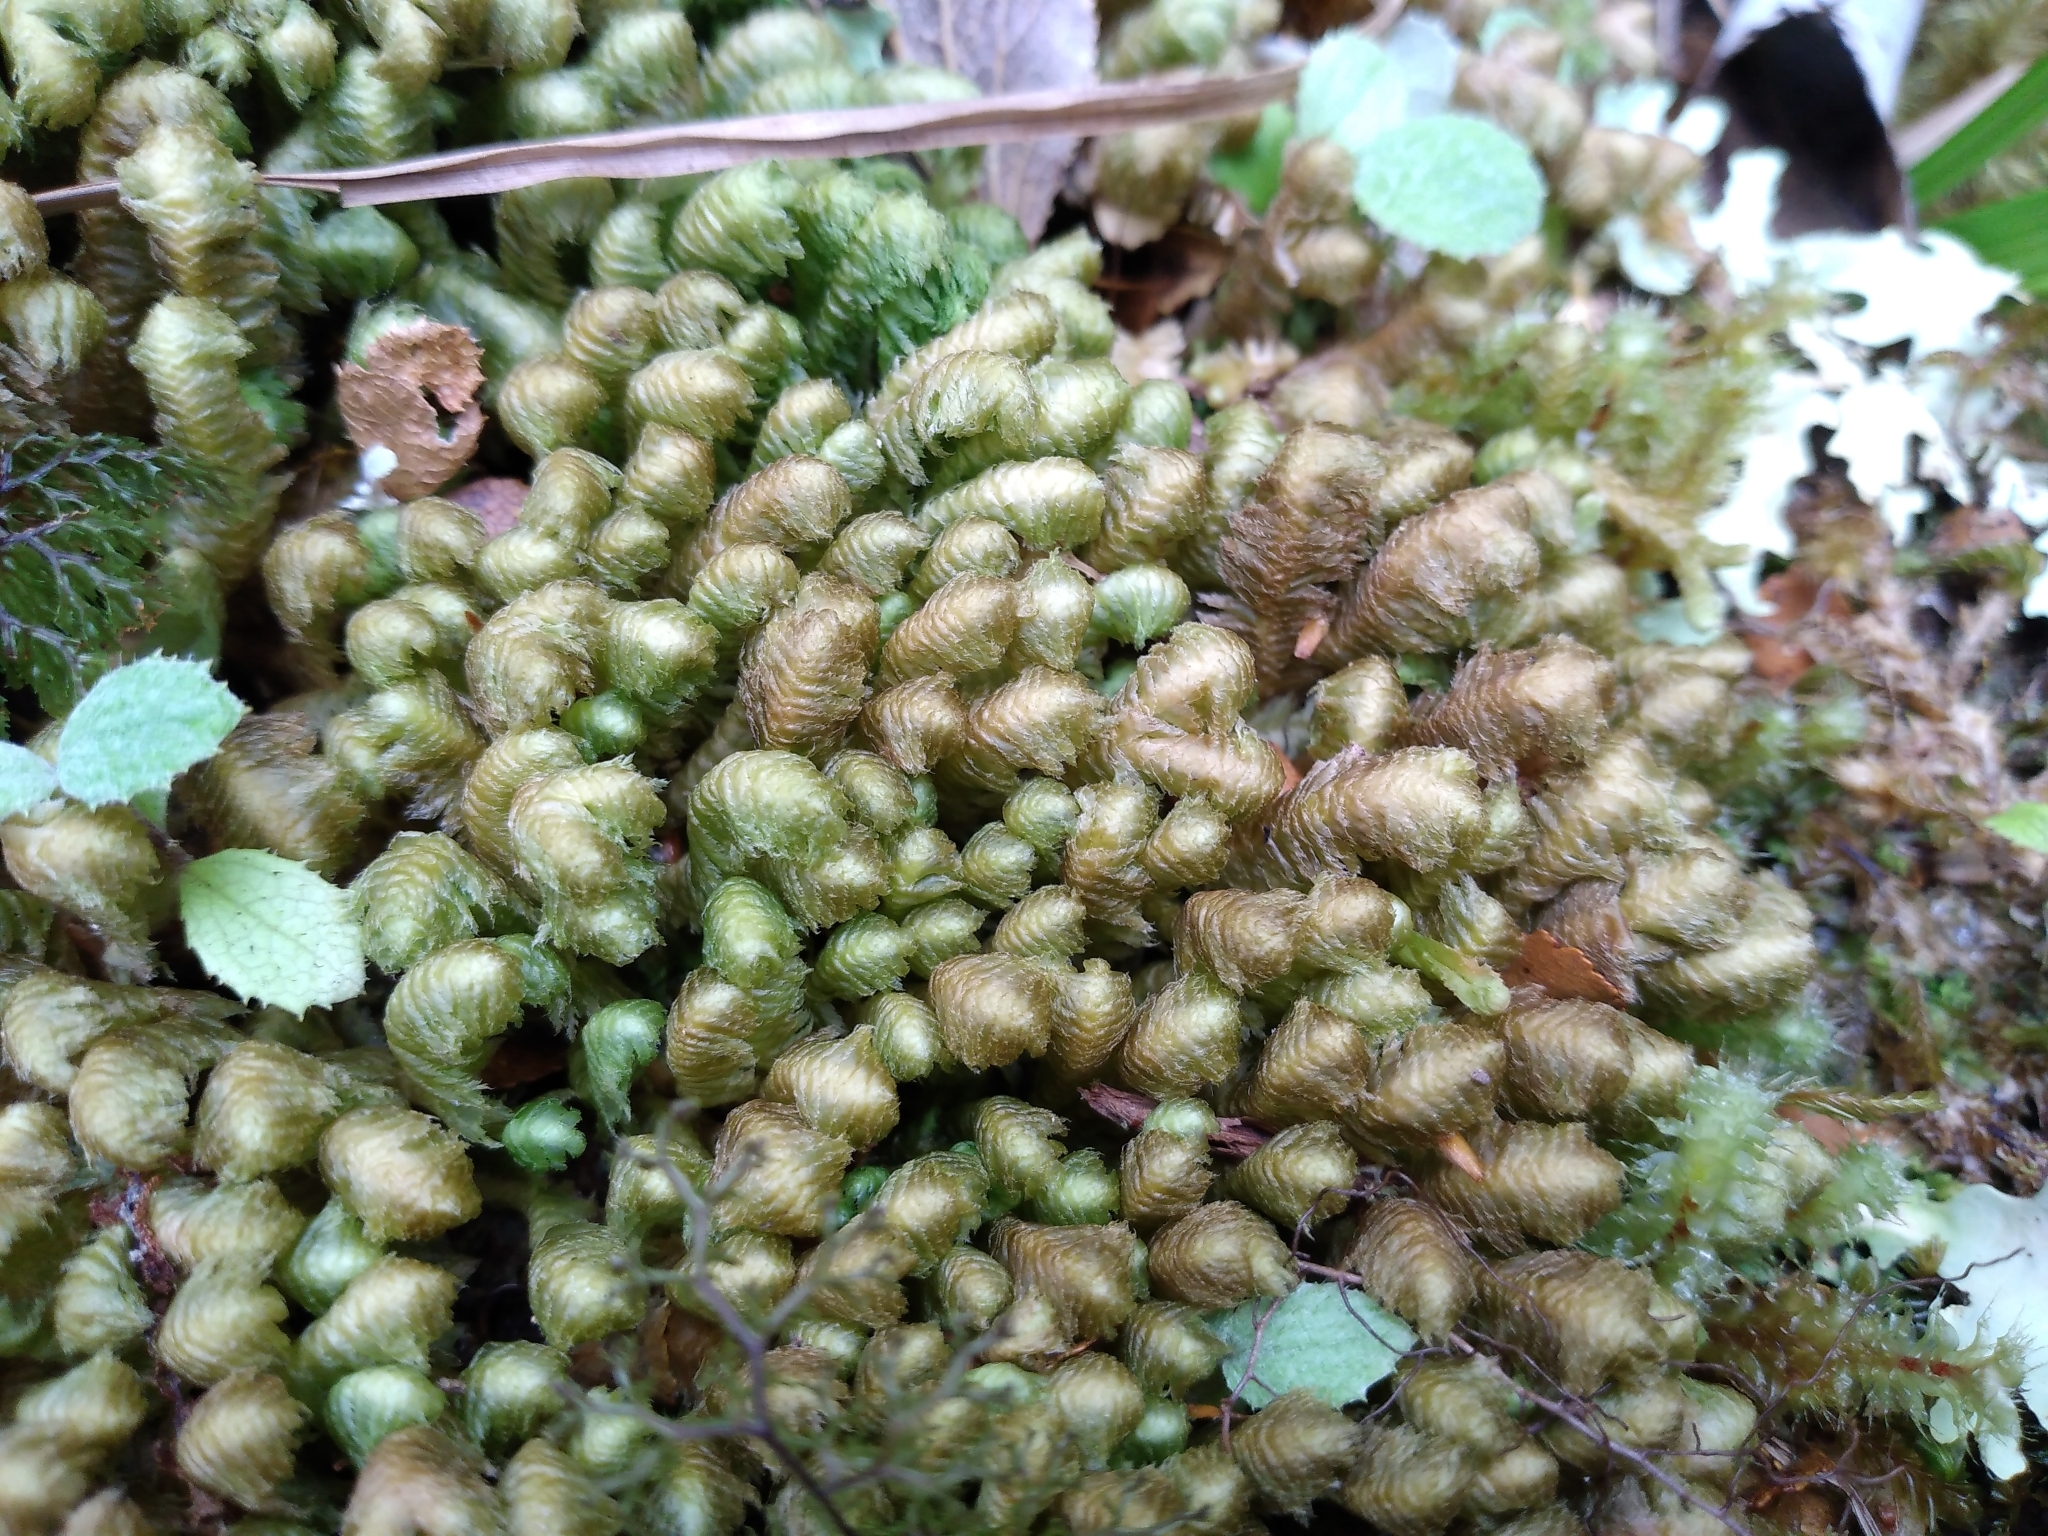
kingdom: Plantae
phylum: Marchantiophyta
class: Jungermanniopsida
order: Jungermanniales
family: Schistochilaceae
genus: Schistochila
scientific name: Schistochila pinnatifolia
